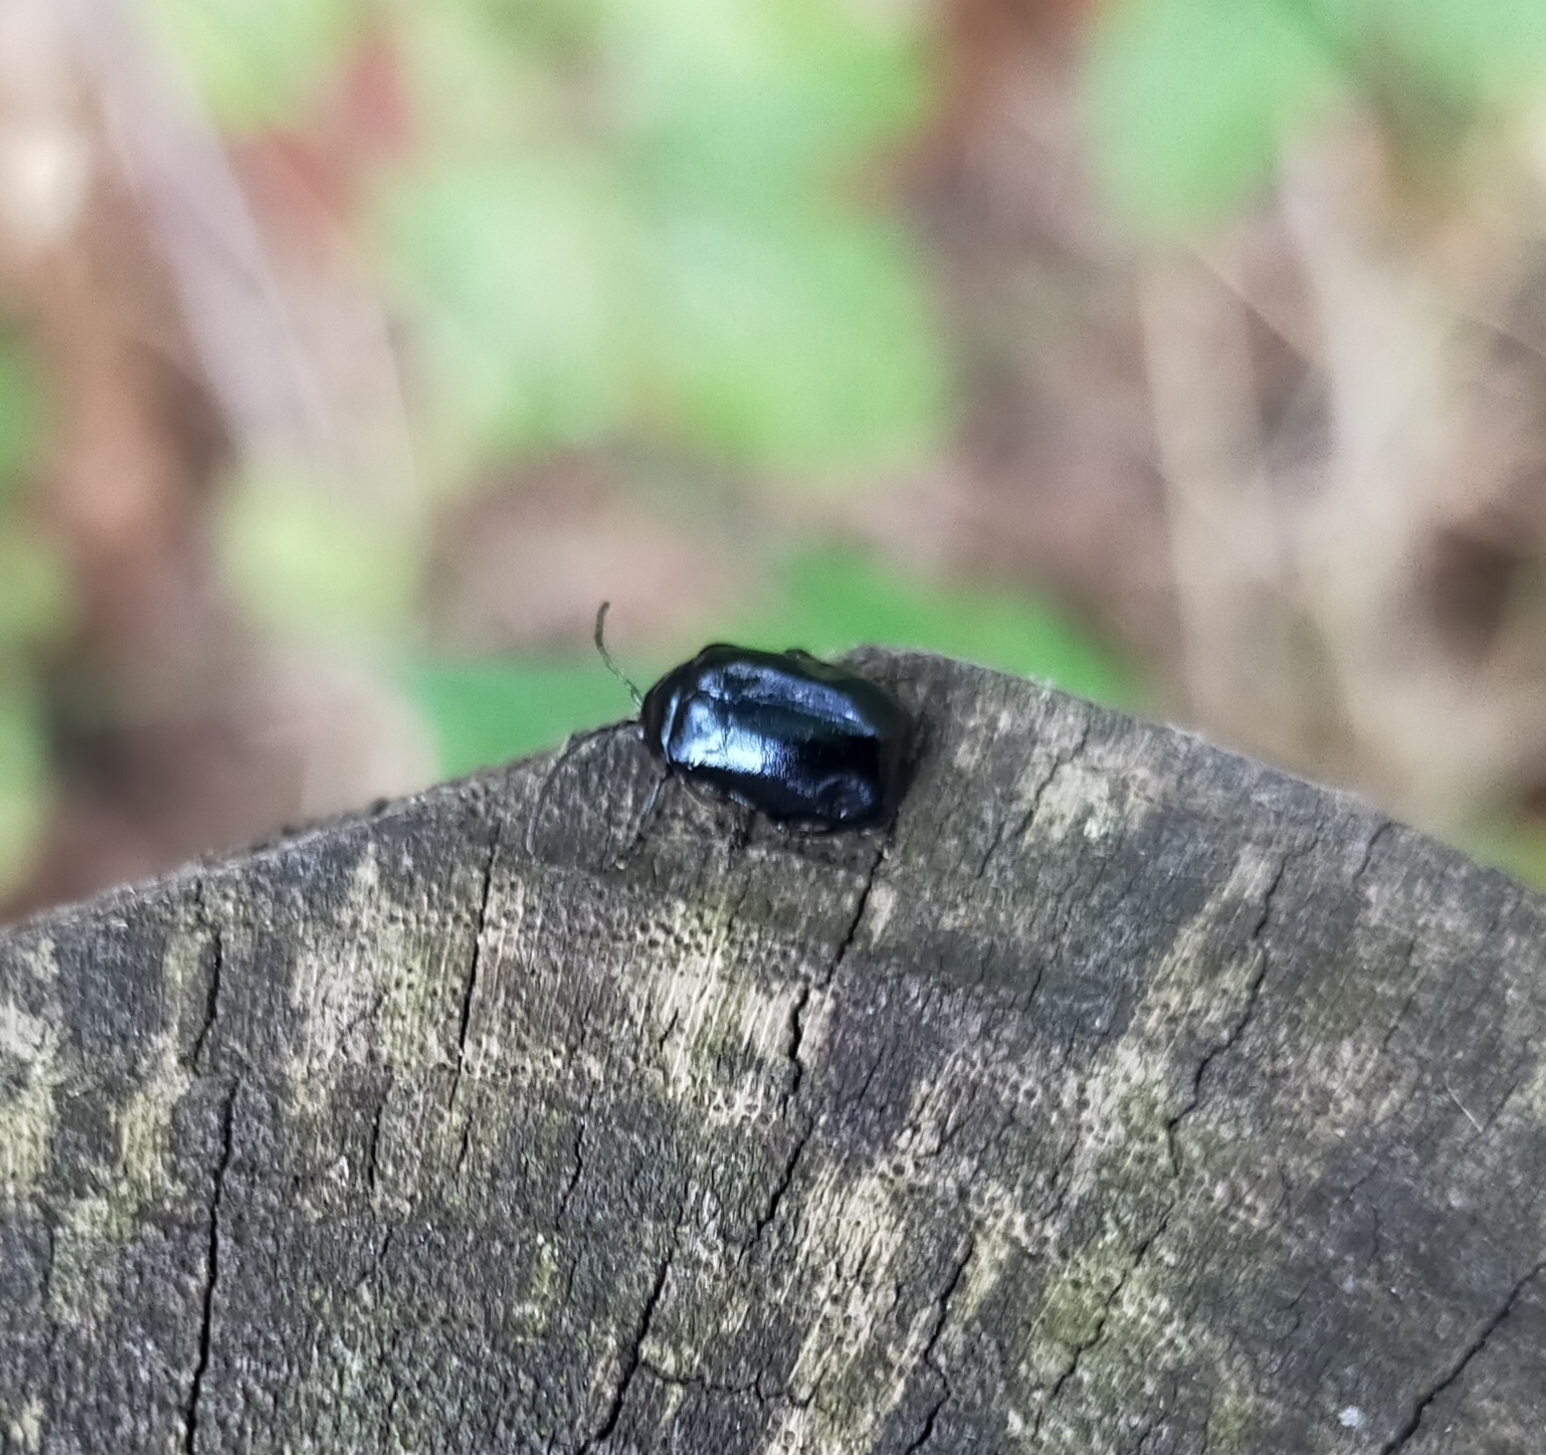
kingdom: Animalia
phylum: Arthropoda
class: Insecta
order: Coleoptera
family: Chrysomelidae
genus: Agelastica
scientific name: Agelastica alni
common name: Alder leaf beetle
